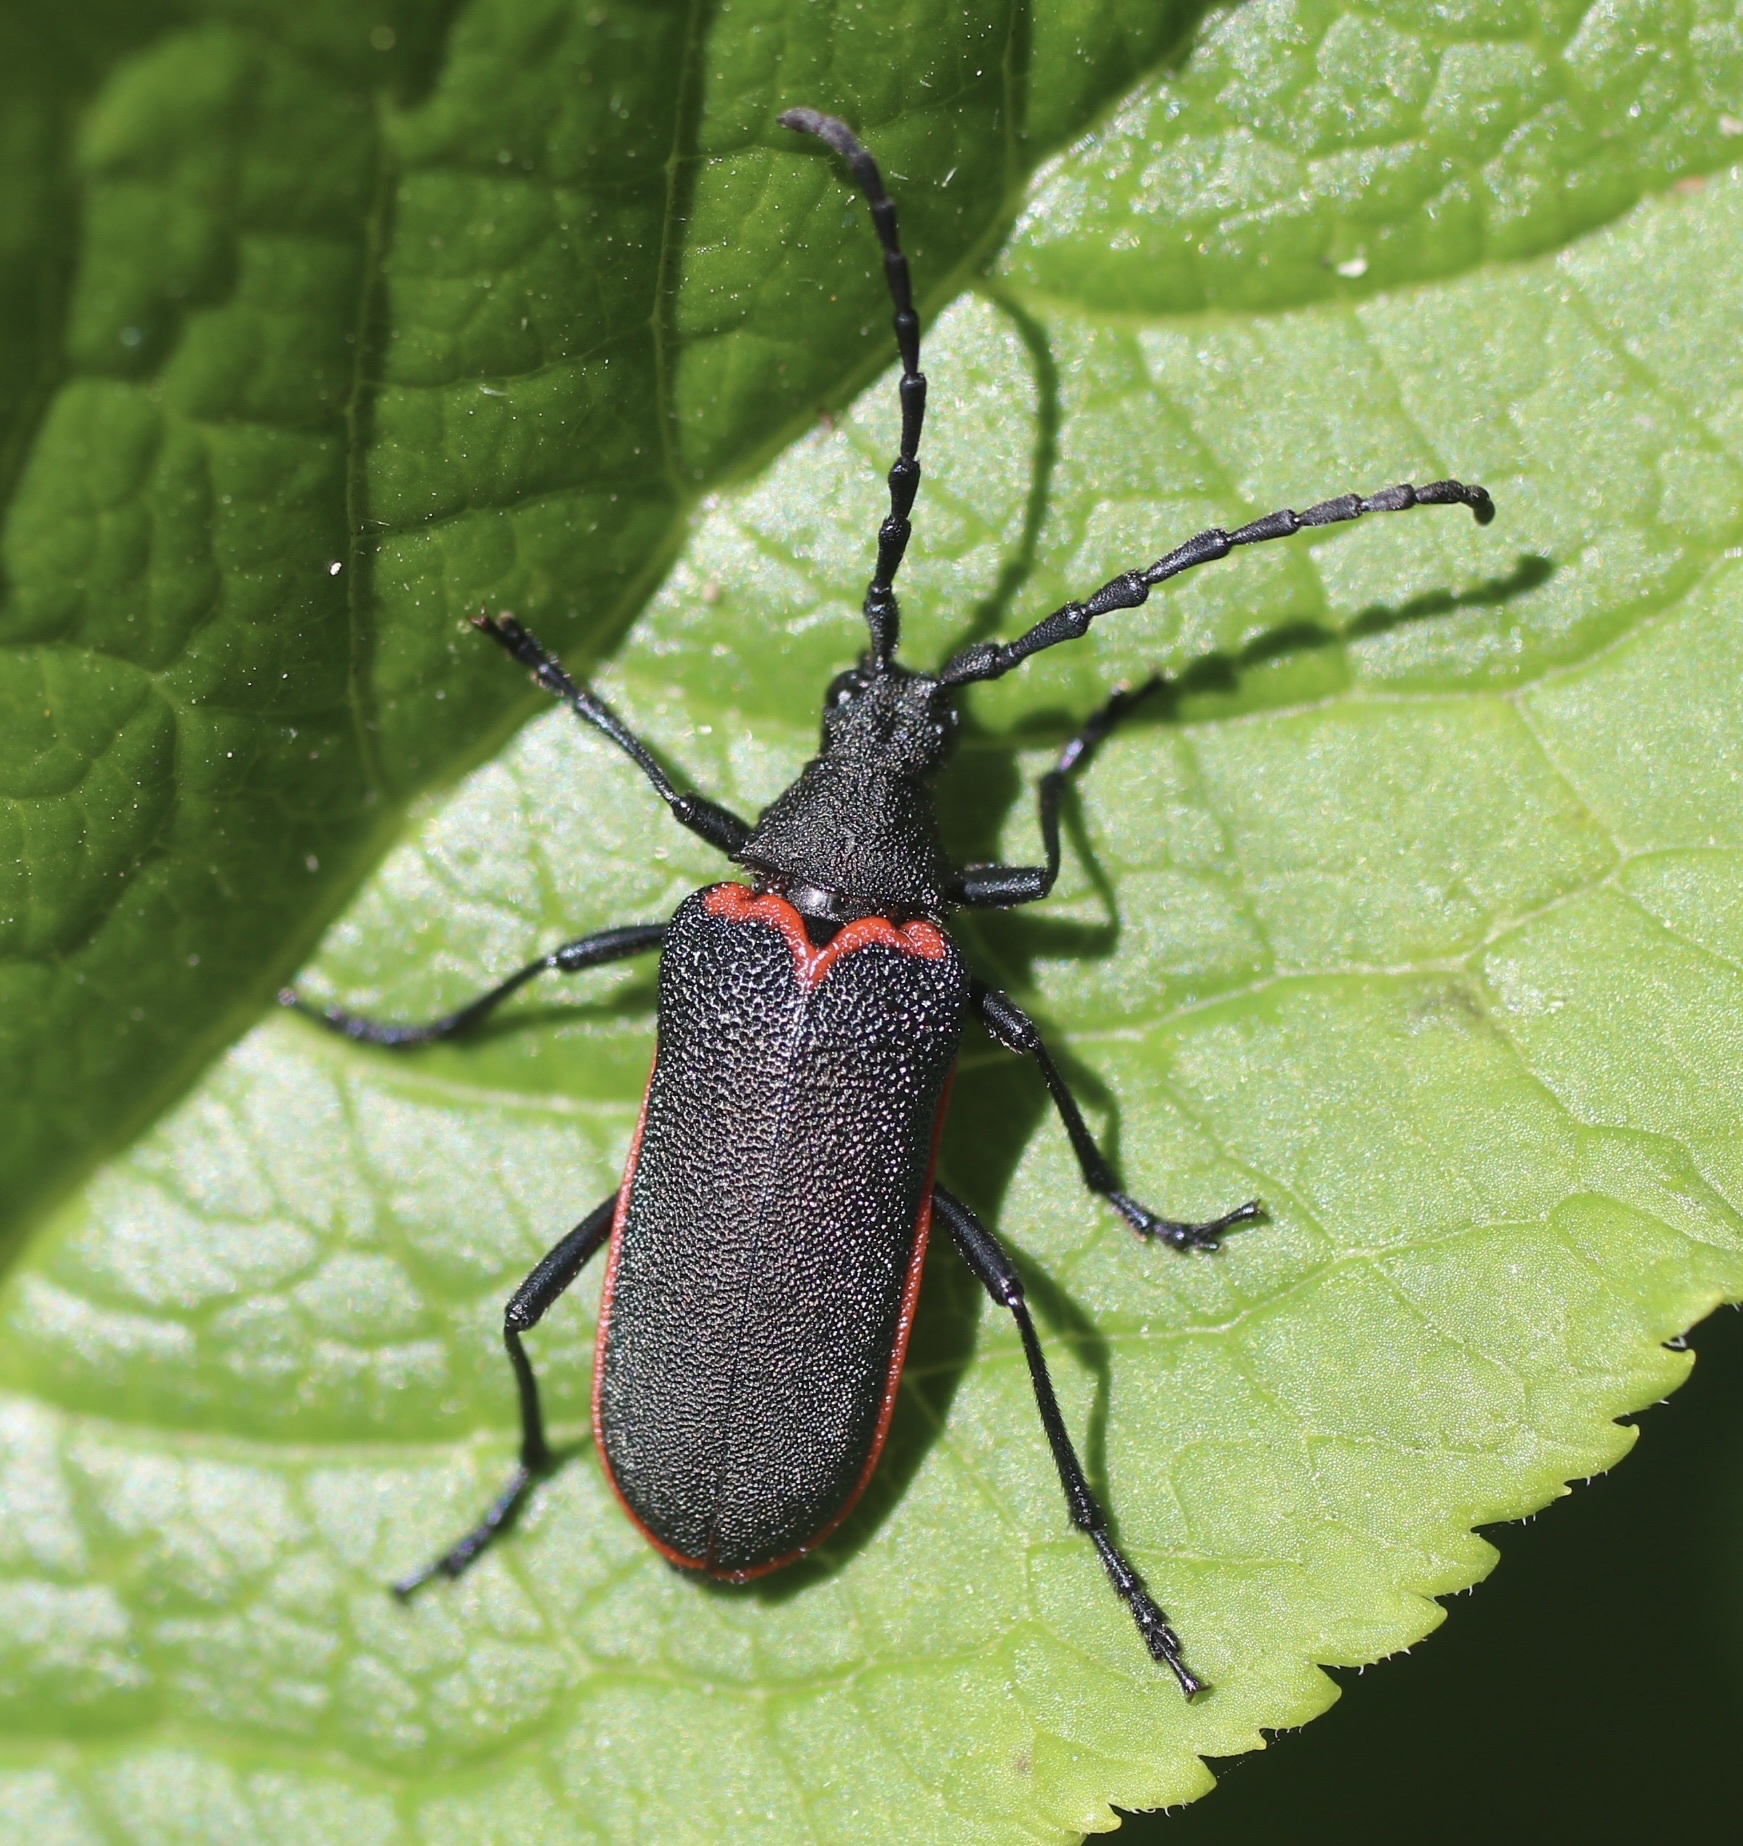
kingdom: Animalia
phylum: Arthropoda
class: Insecta
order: Coleoptera
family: Cerambycidae
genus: Desmocerus
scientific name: Desmocerus californicus
